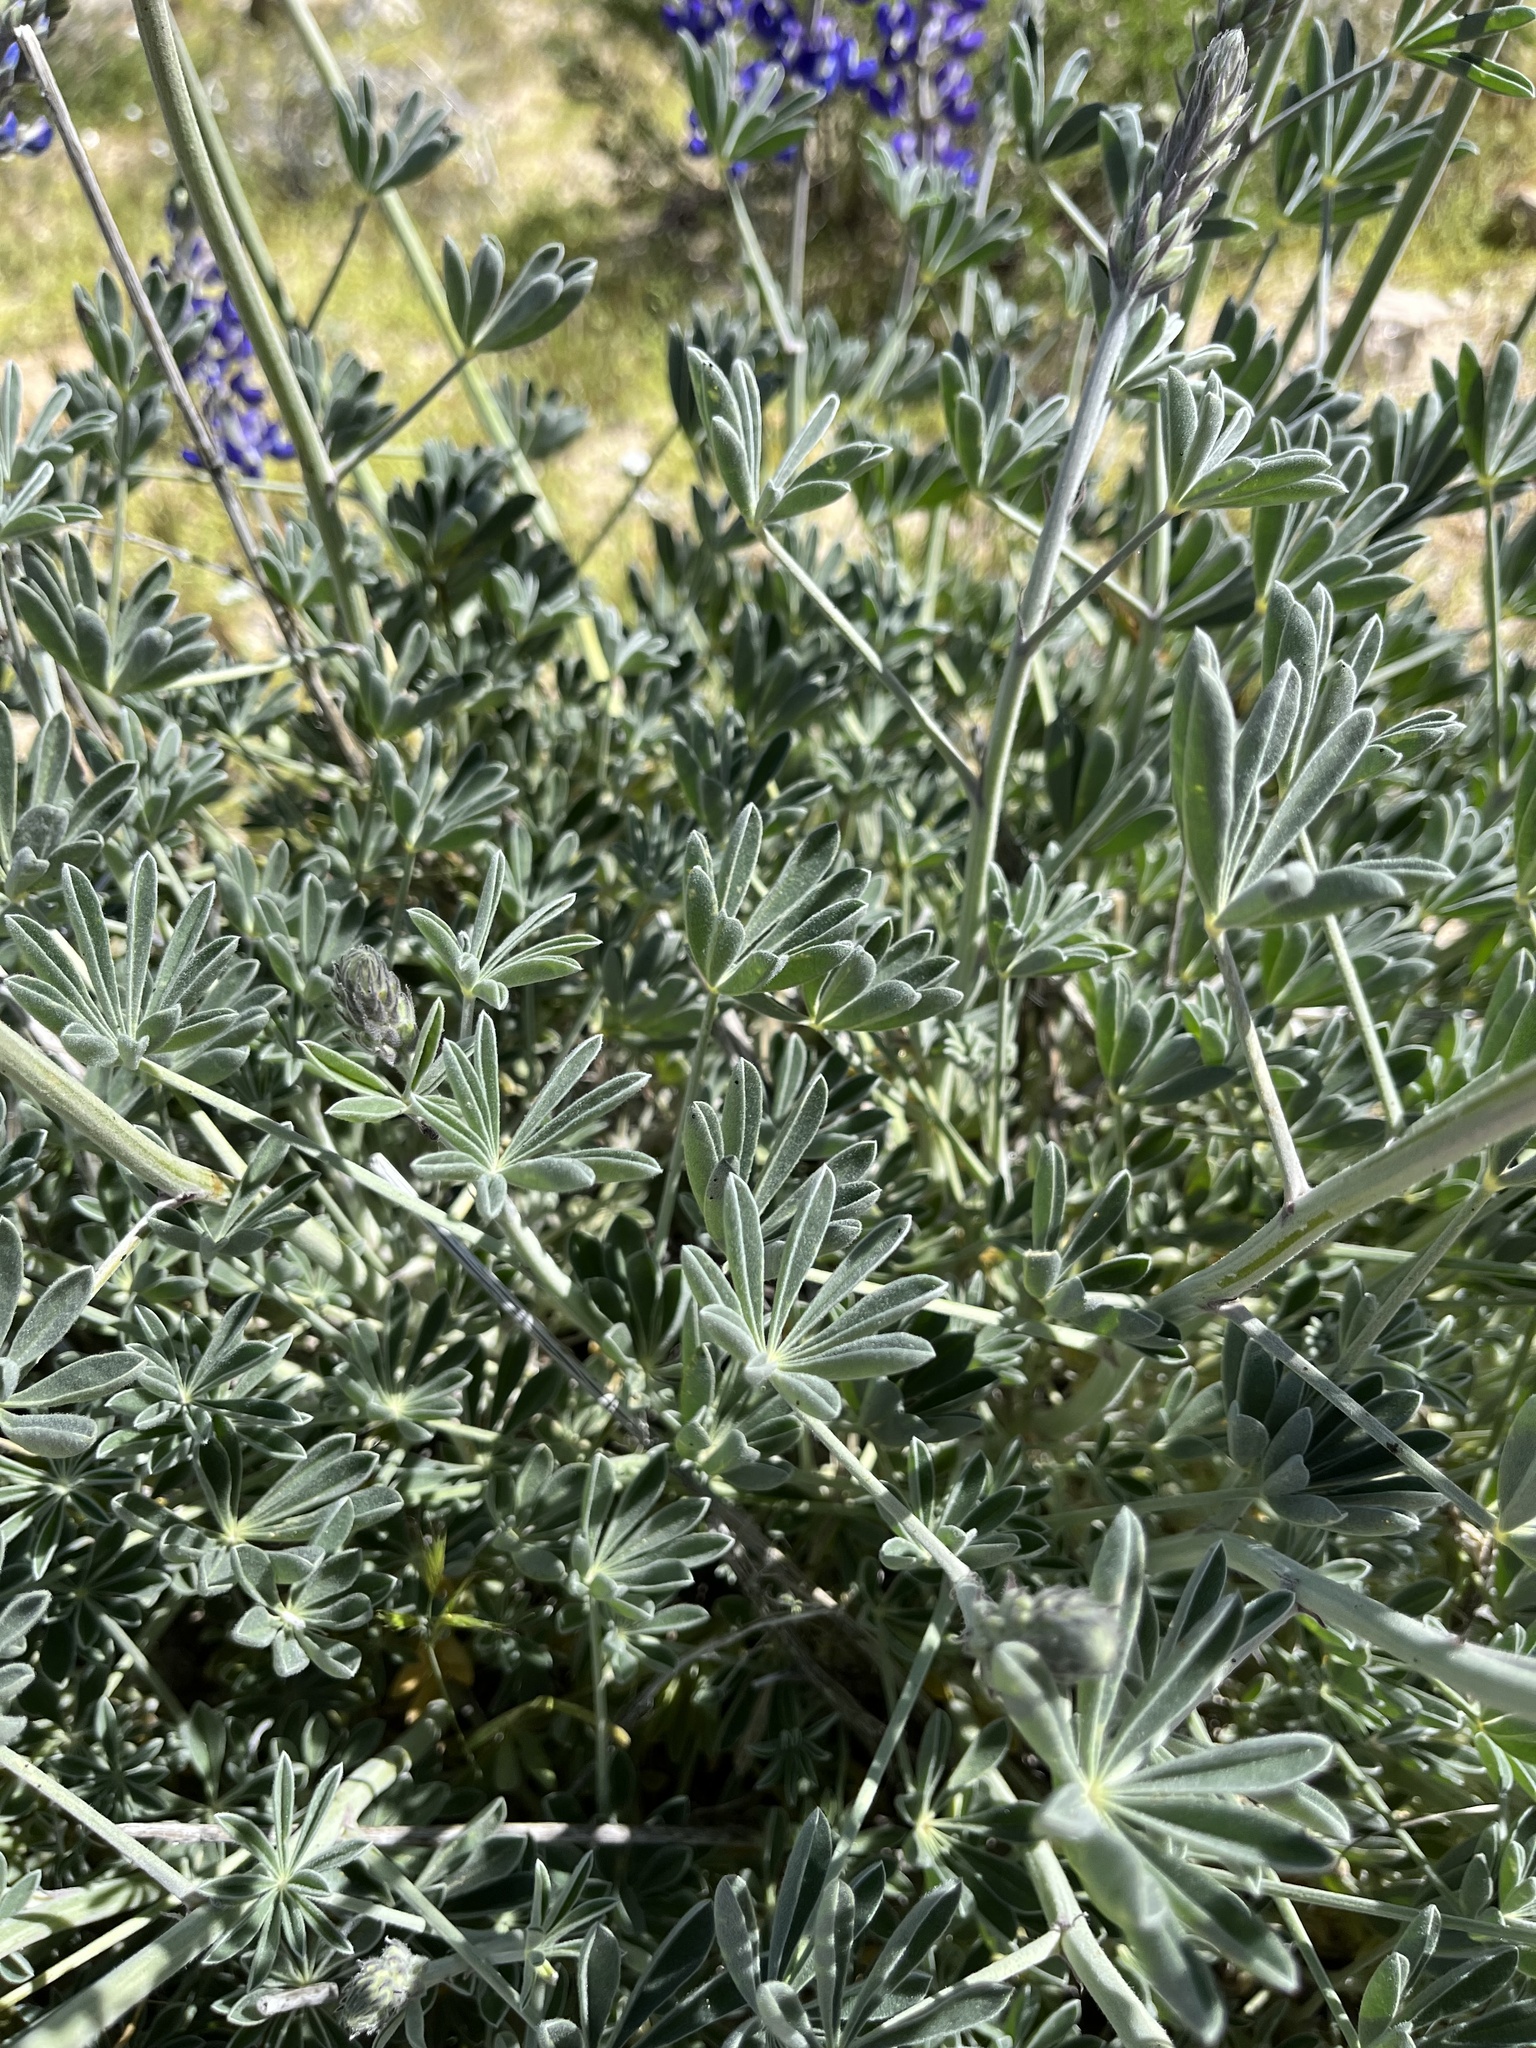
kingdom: Plantae
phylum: Tracheophyta
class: Magnoliopsida
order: Fabales
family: Fabaceae
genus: Lupinus
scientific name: Lupinus excubitus
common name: Grape soda lupine
